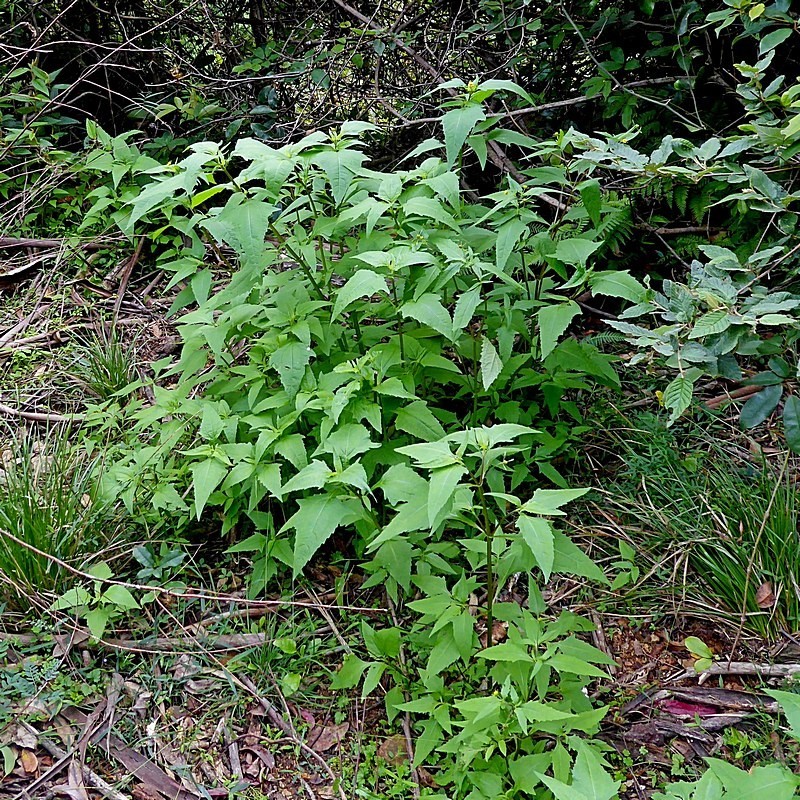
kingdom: Plantae
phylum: Tracheophyta
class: Magnoliopsida
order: Asterales
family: Asteraceae
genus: Sigesbeckia
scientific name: Sigesbeckia orientalis
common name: Eastern st paul's-wort
